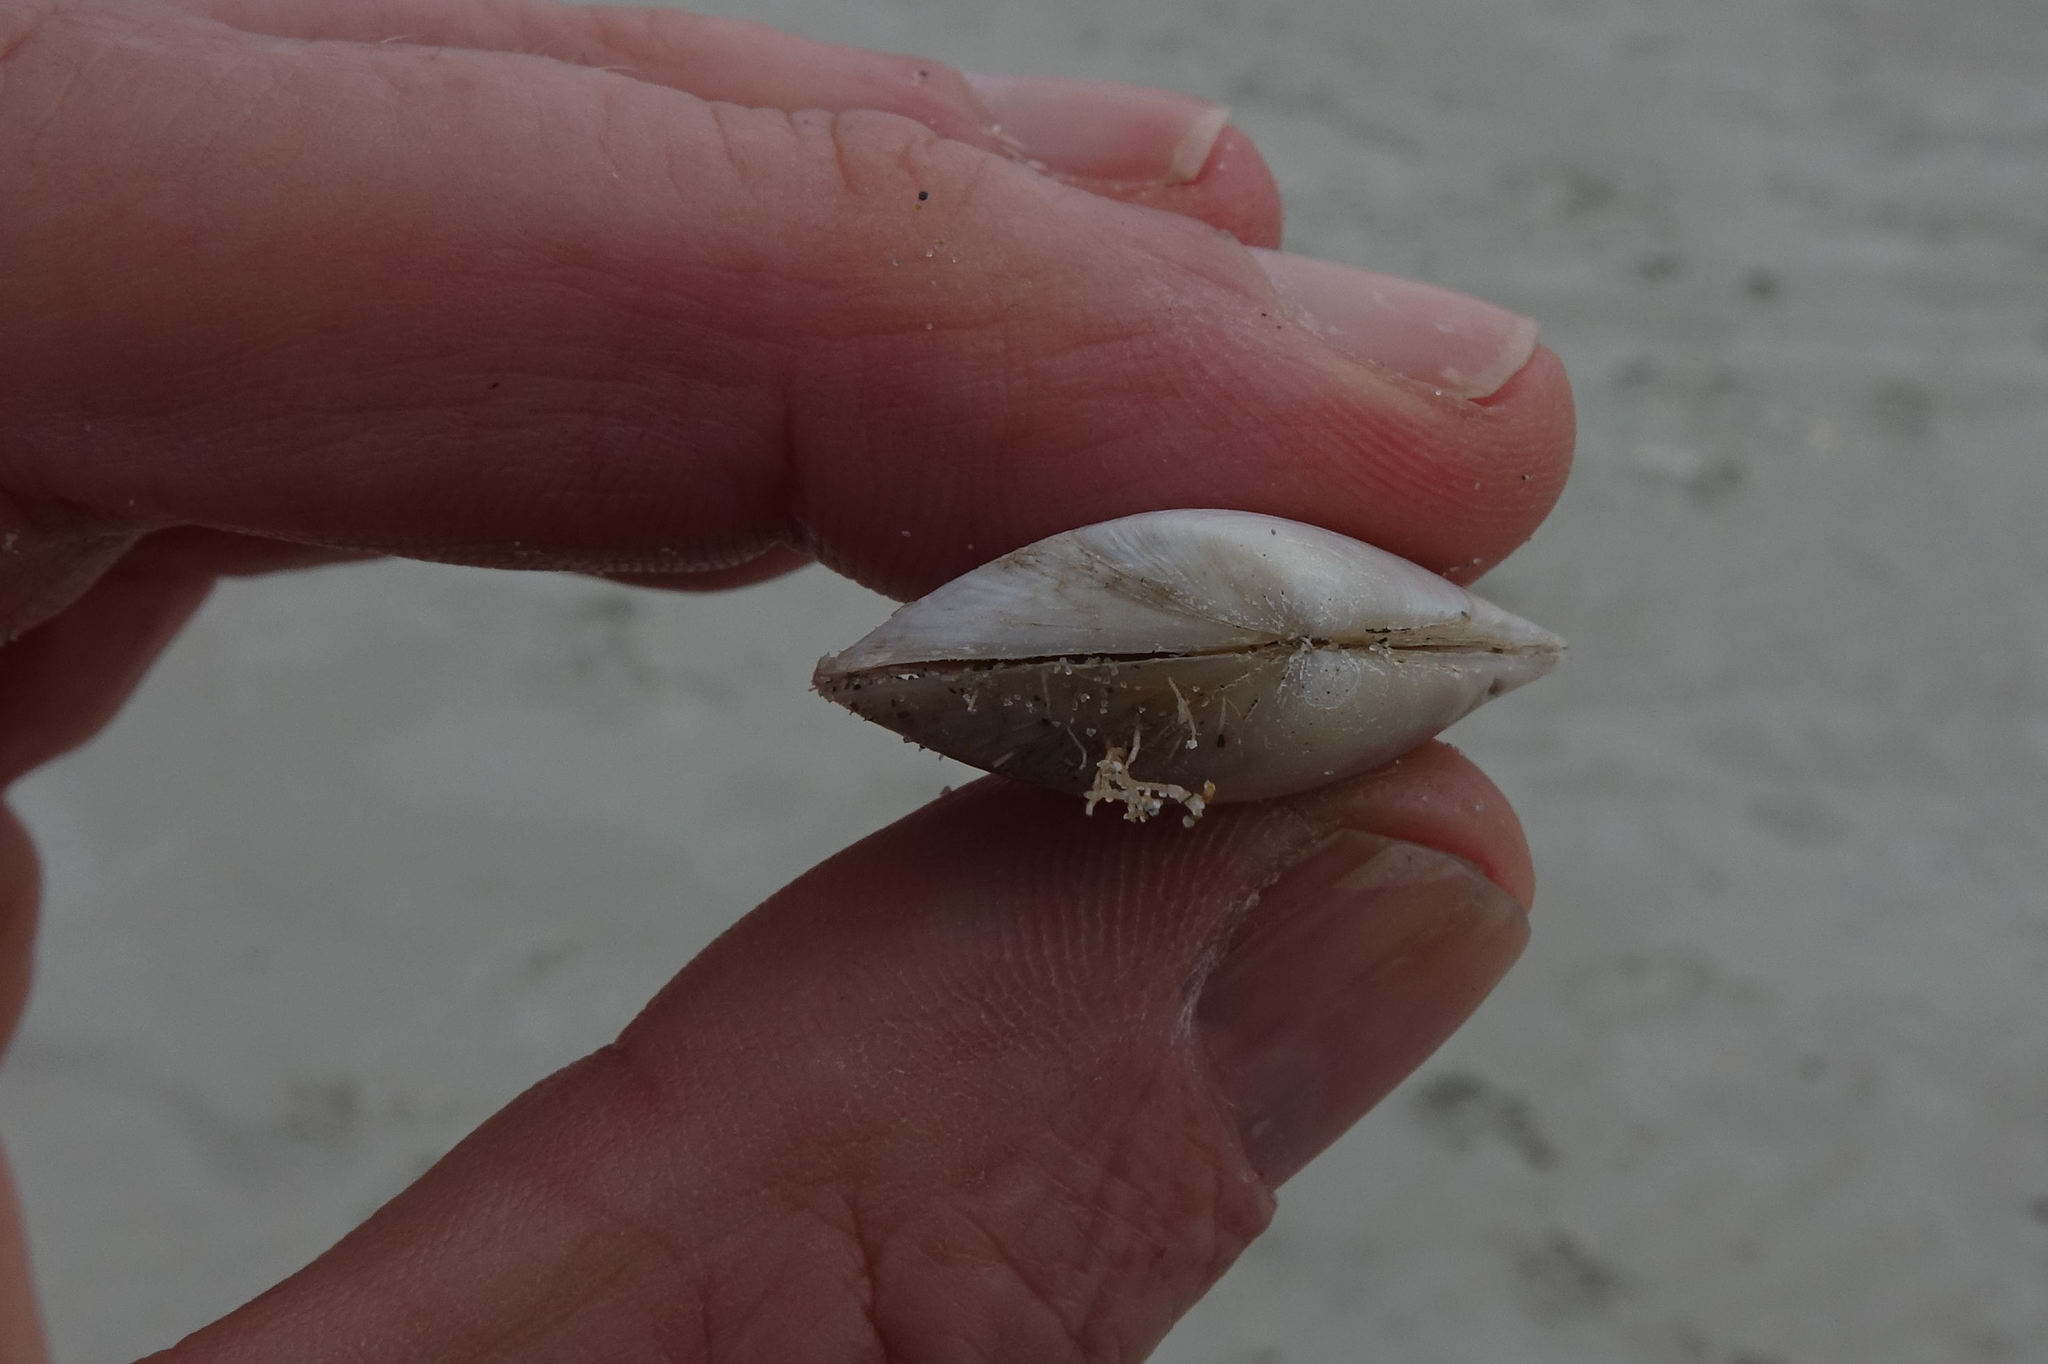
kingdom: Animalia
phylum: Mollusca
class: Bivalvia
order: Venerida
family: Mesodesmatidae
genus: Paphies
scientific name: Paphies subtriangulata
